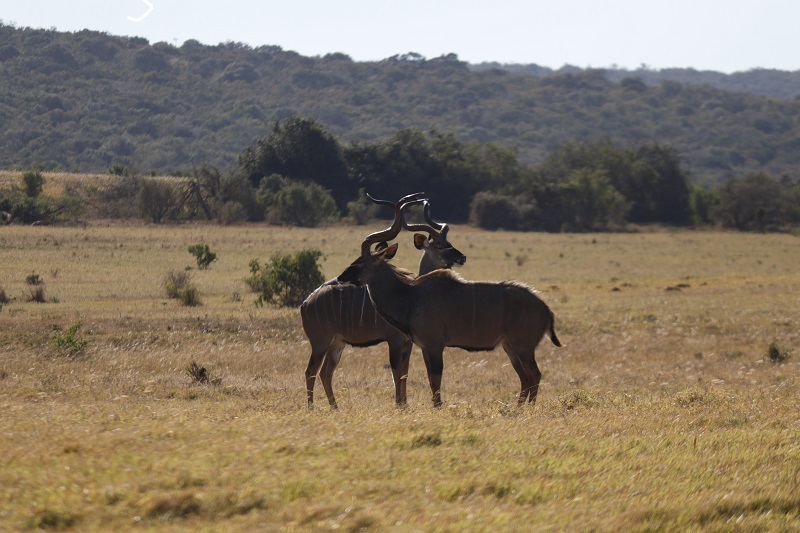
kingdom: Animalia
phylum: Chordata
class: Mammalia
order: Artiodactyla
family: Bovidae
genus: Tragelaphus
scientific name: Tragelaphus strepsiceros
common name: Greater kudu
